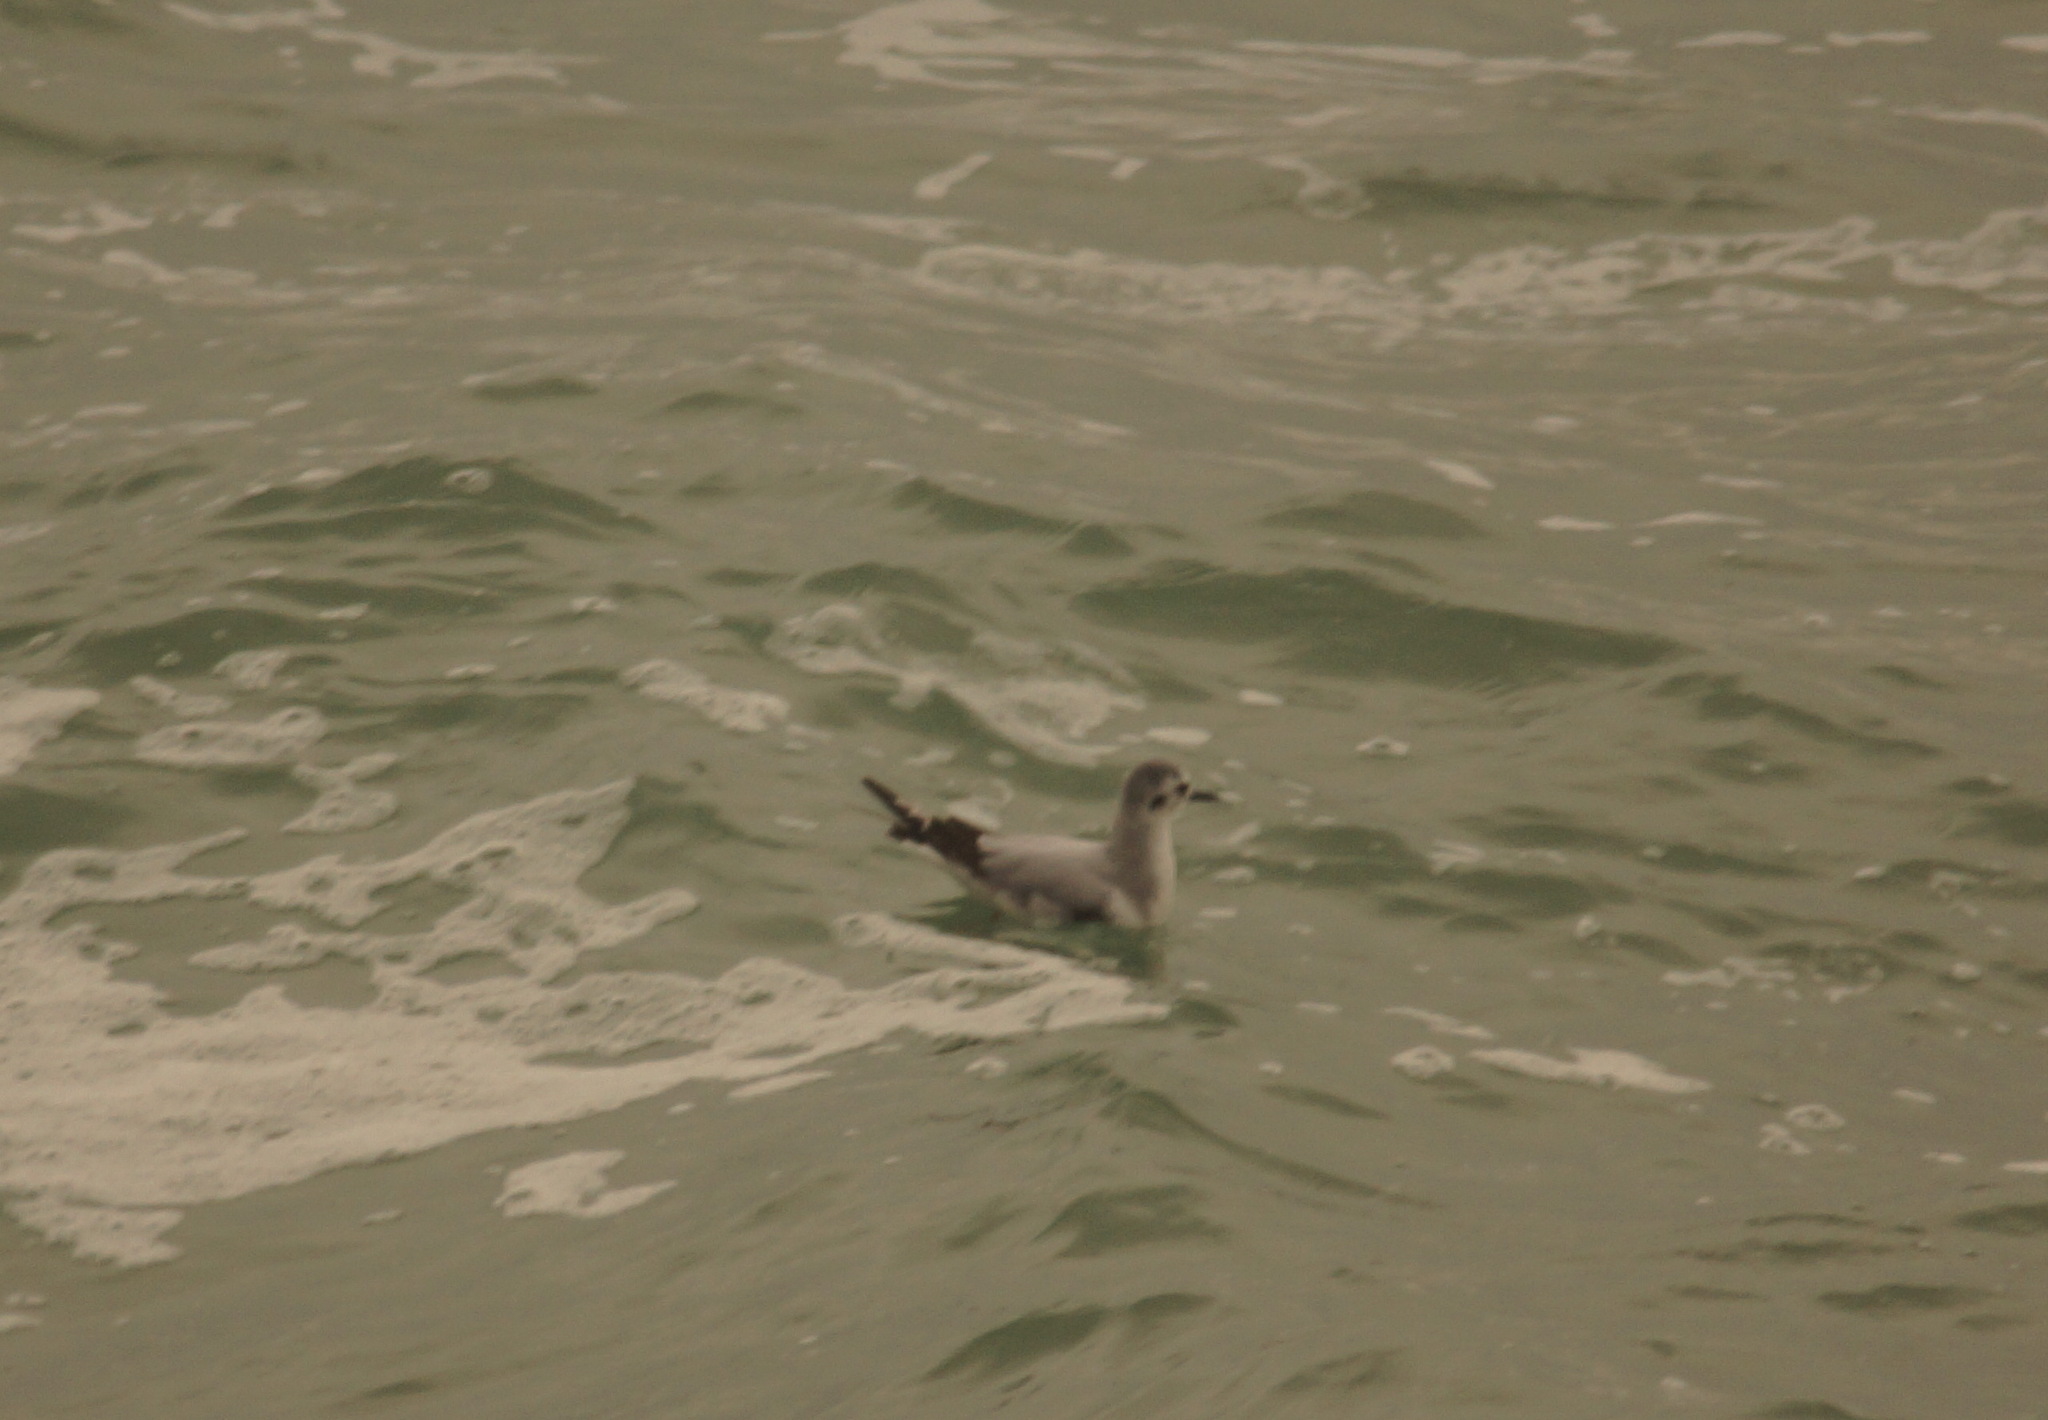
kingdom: Animalia
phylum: Chordata
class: Aves
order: Charadriiformes
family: Laridae
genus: Hydrocoloeus
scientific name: Hydrocoloeus minutus
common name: Little gull
